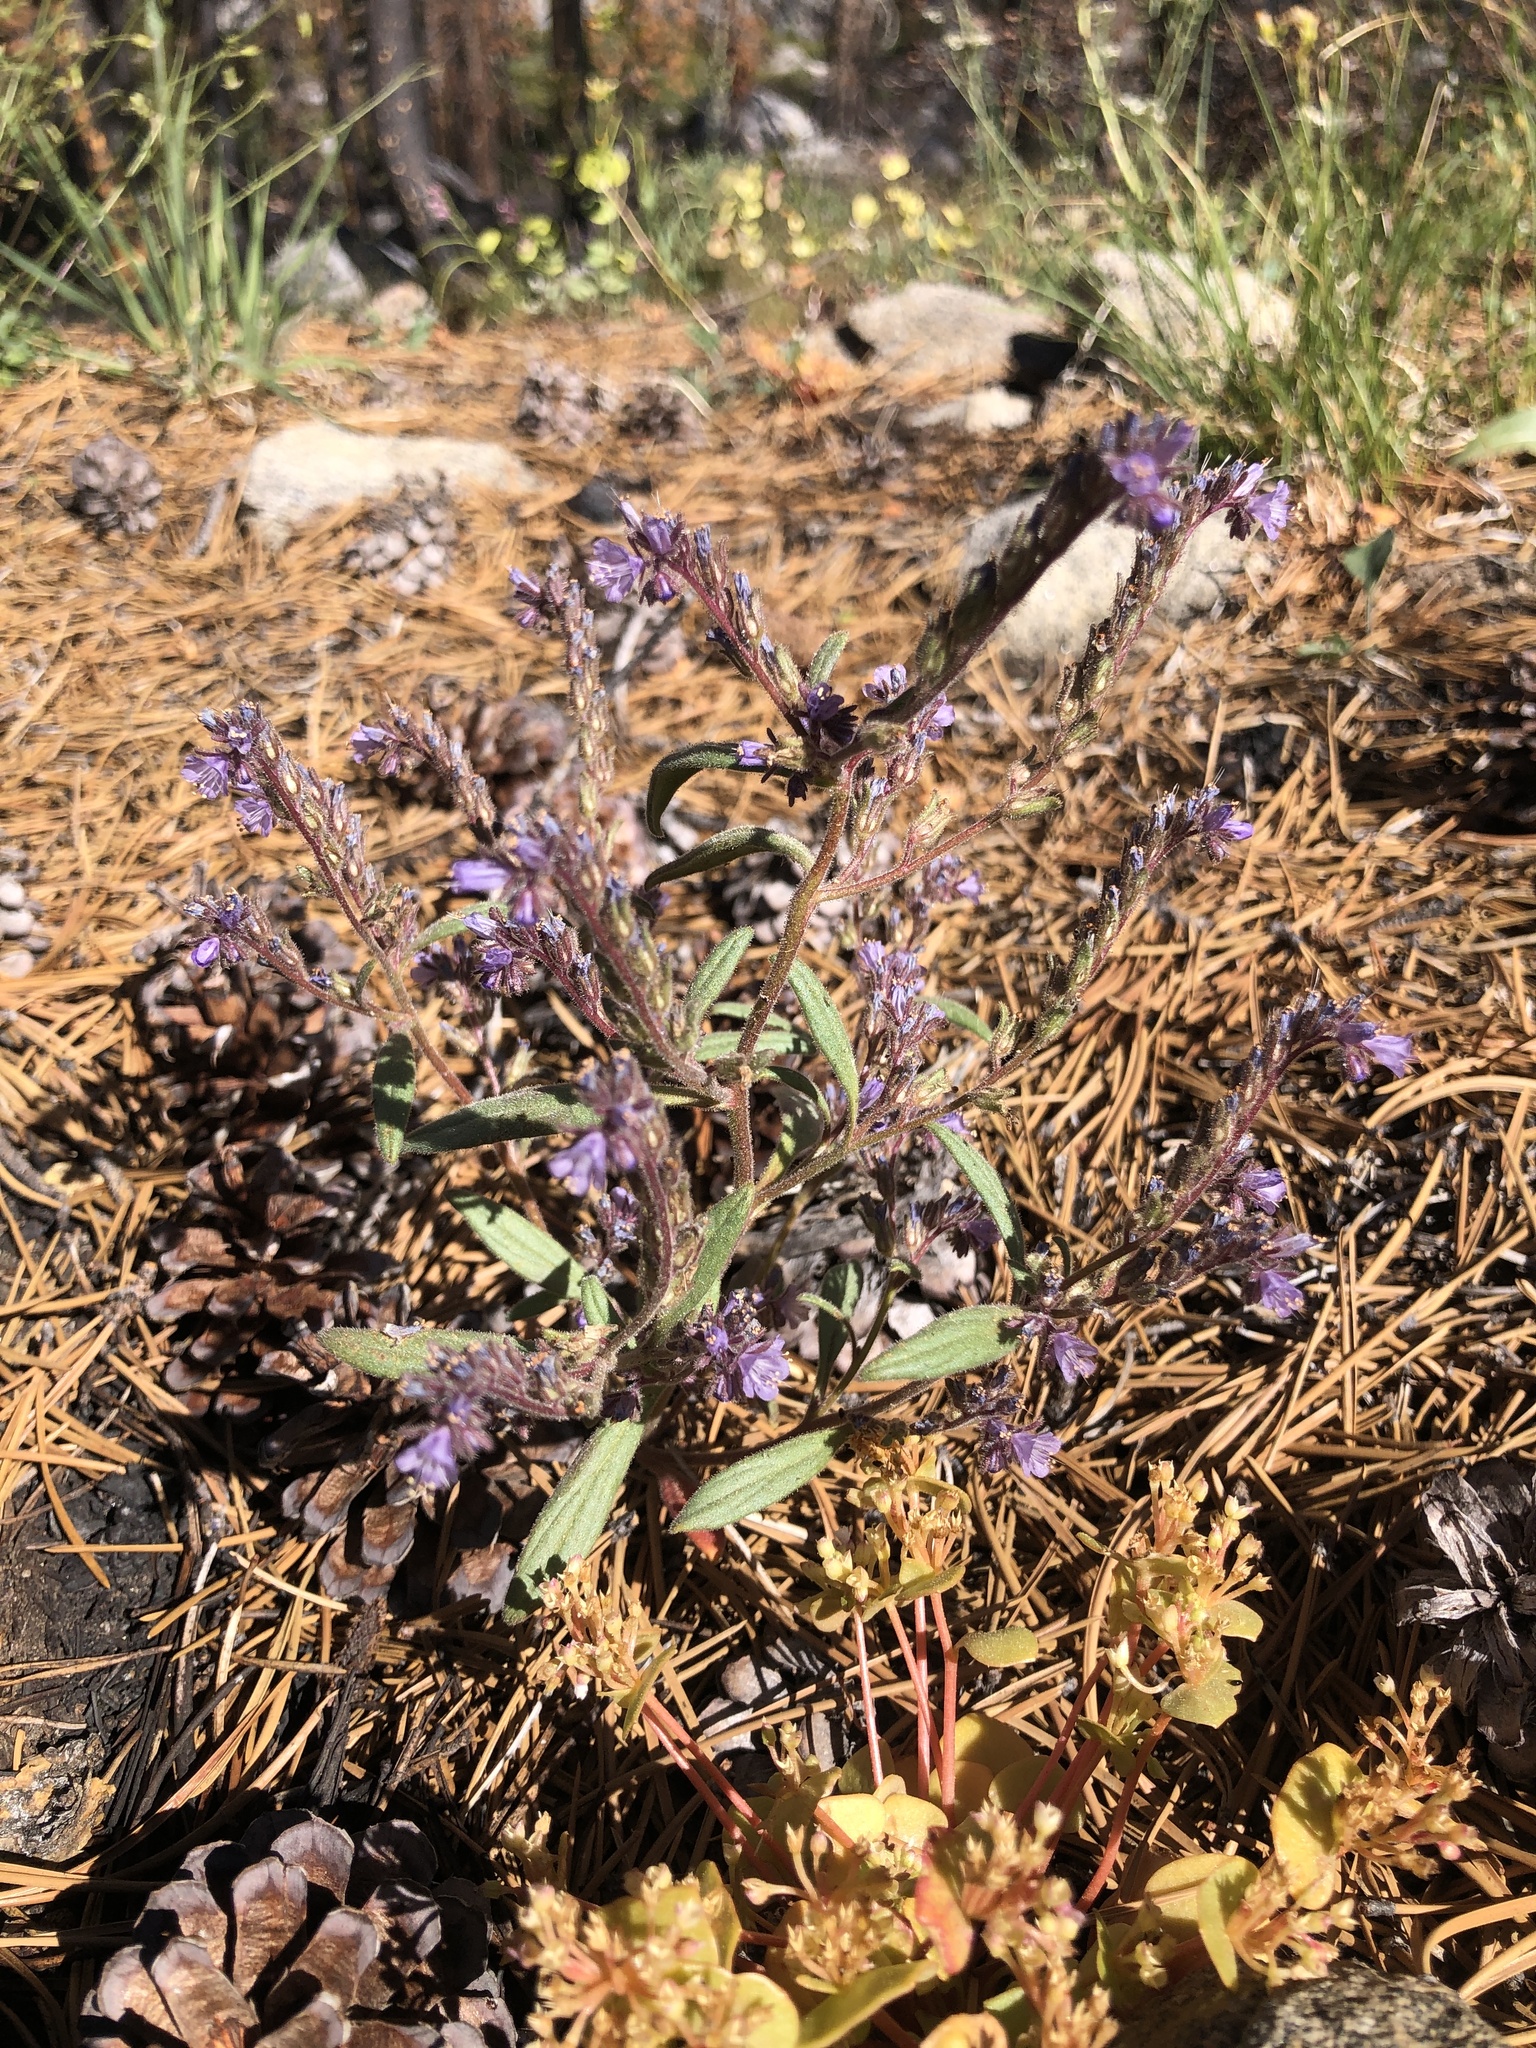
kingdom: Plantae
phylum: Tracheophyta
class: Magnoliopsida
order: Boraginales
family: Hydrophyllaceae
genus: Phacelia
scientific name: Phacelia quickii
